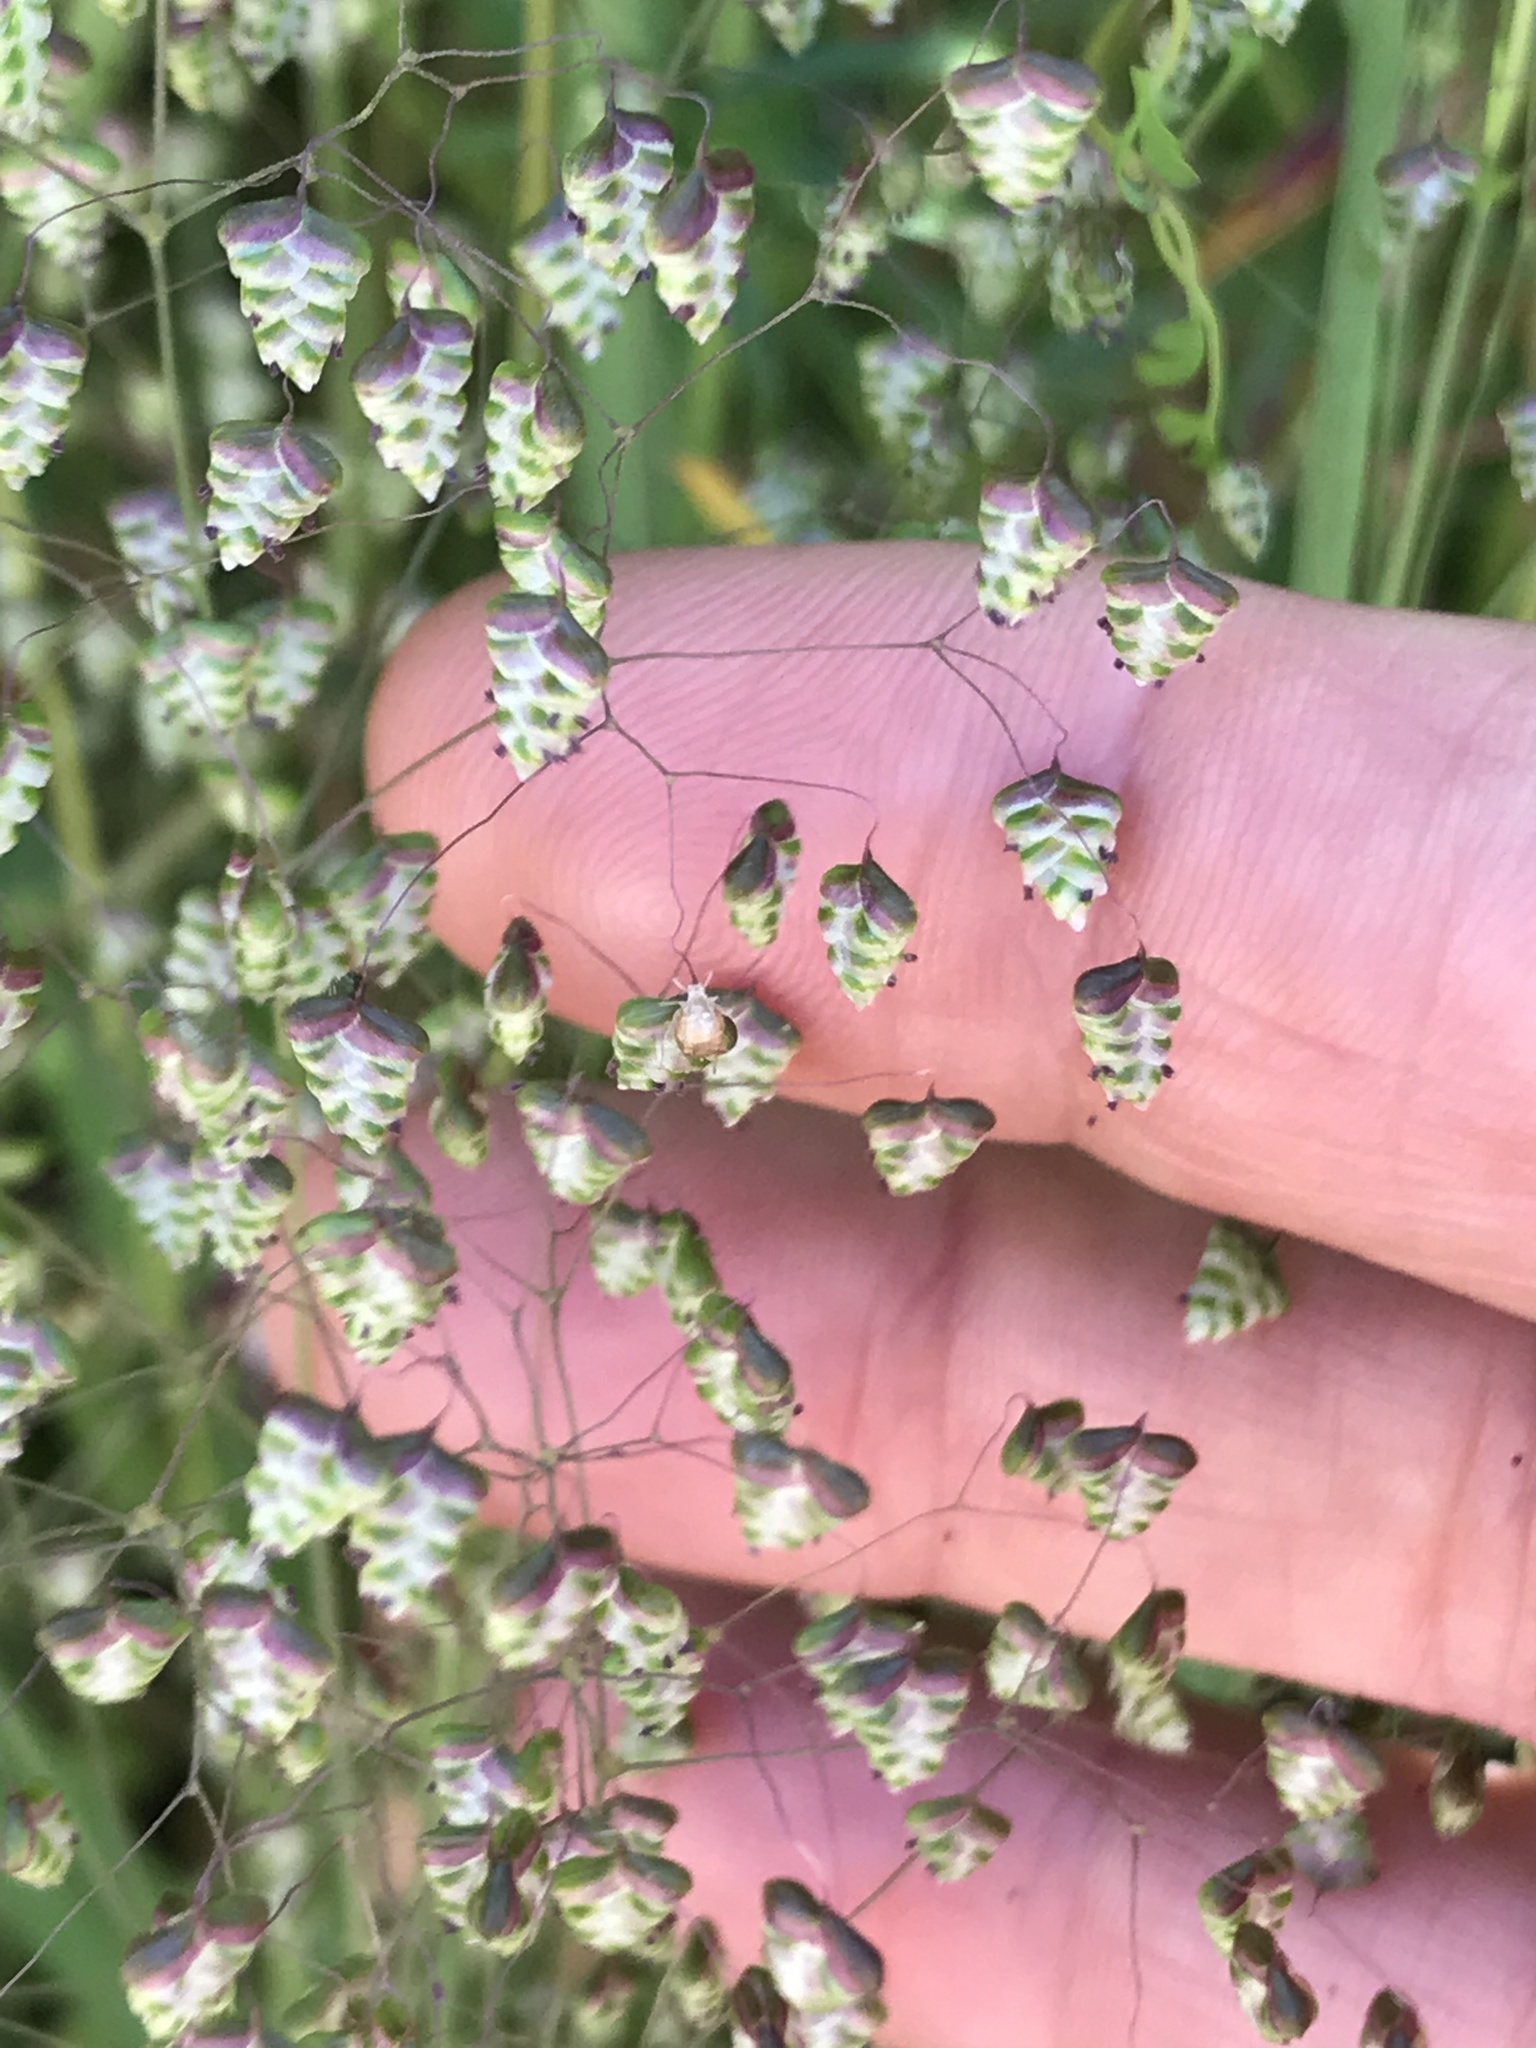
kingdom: Plantae
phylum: Tracheophyta
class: Liliopsida
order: Poales
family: Poaceae
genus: Briza
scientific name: Briza minor
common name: Lesser quaking-grass
